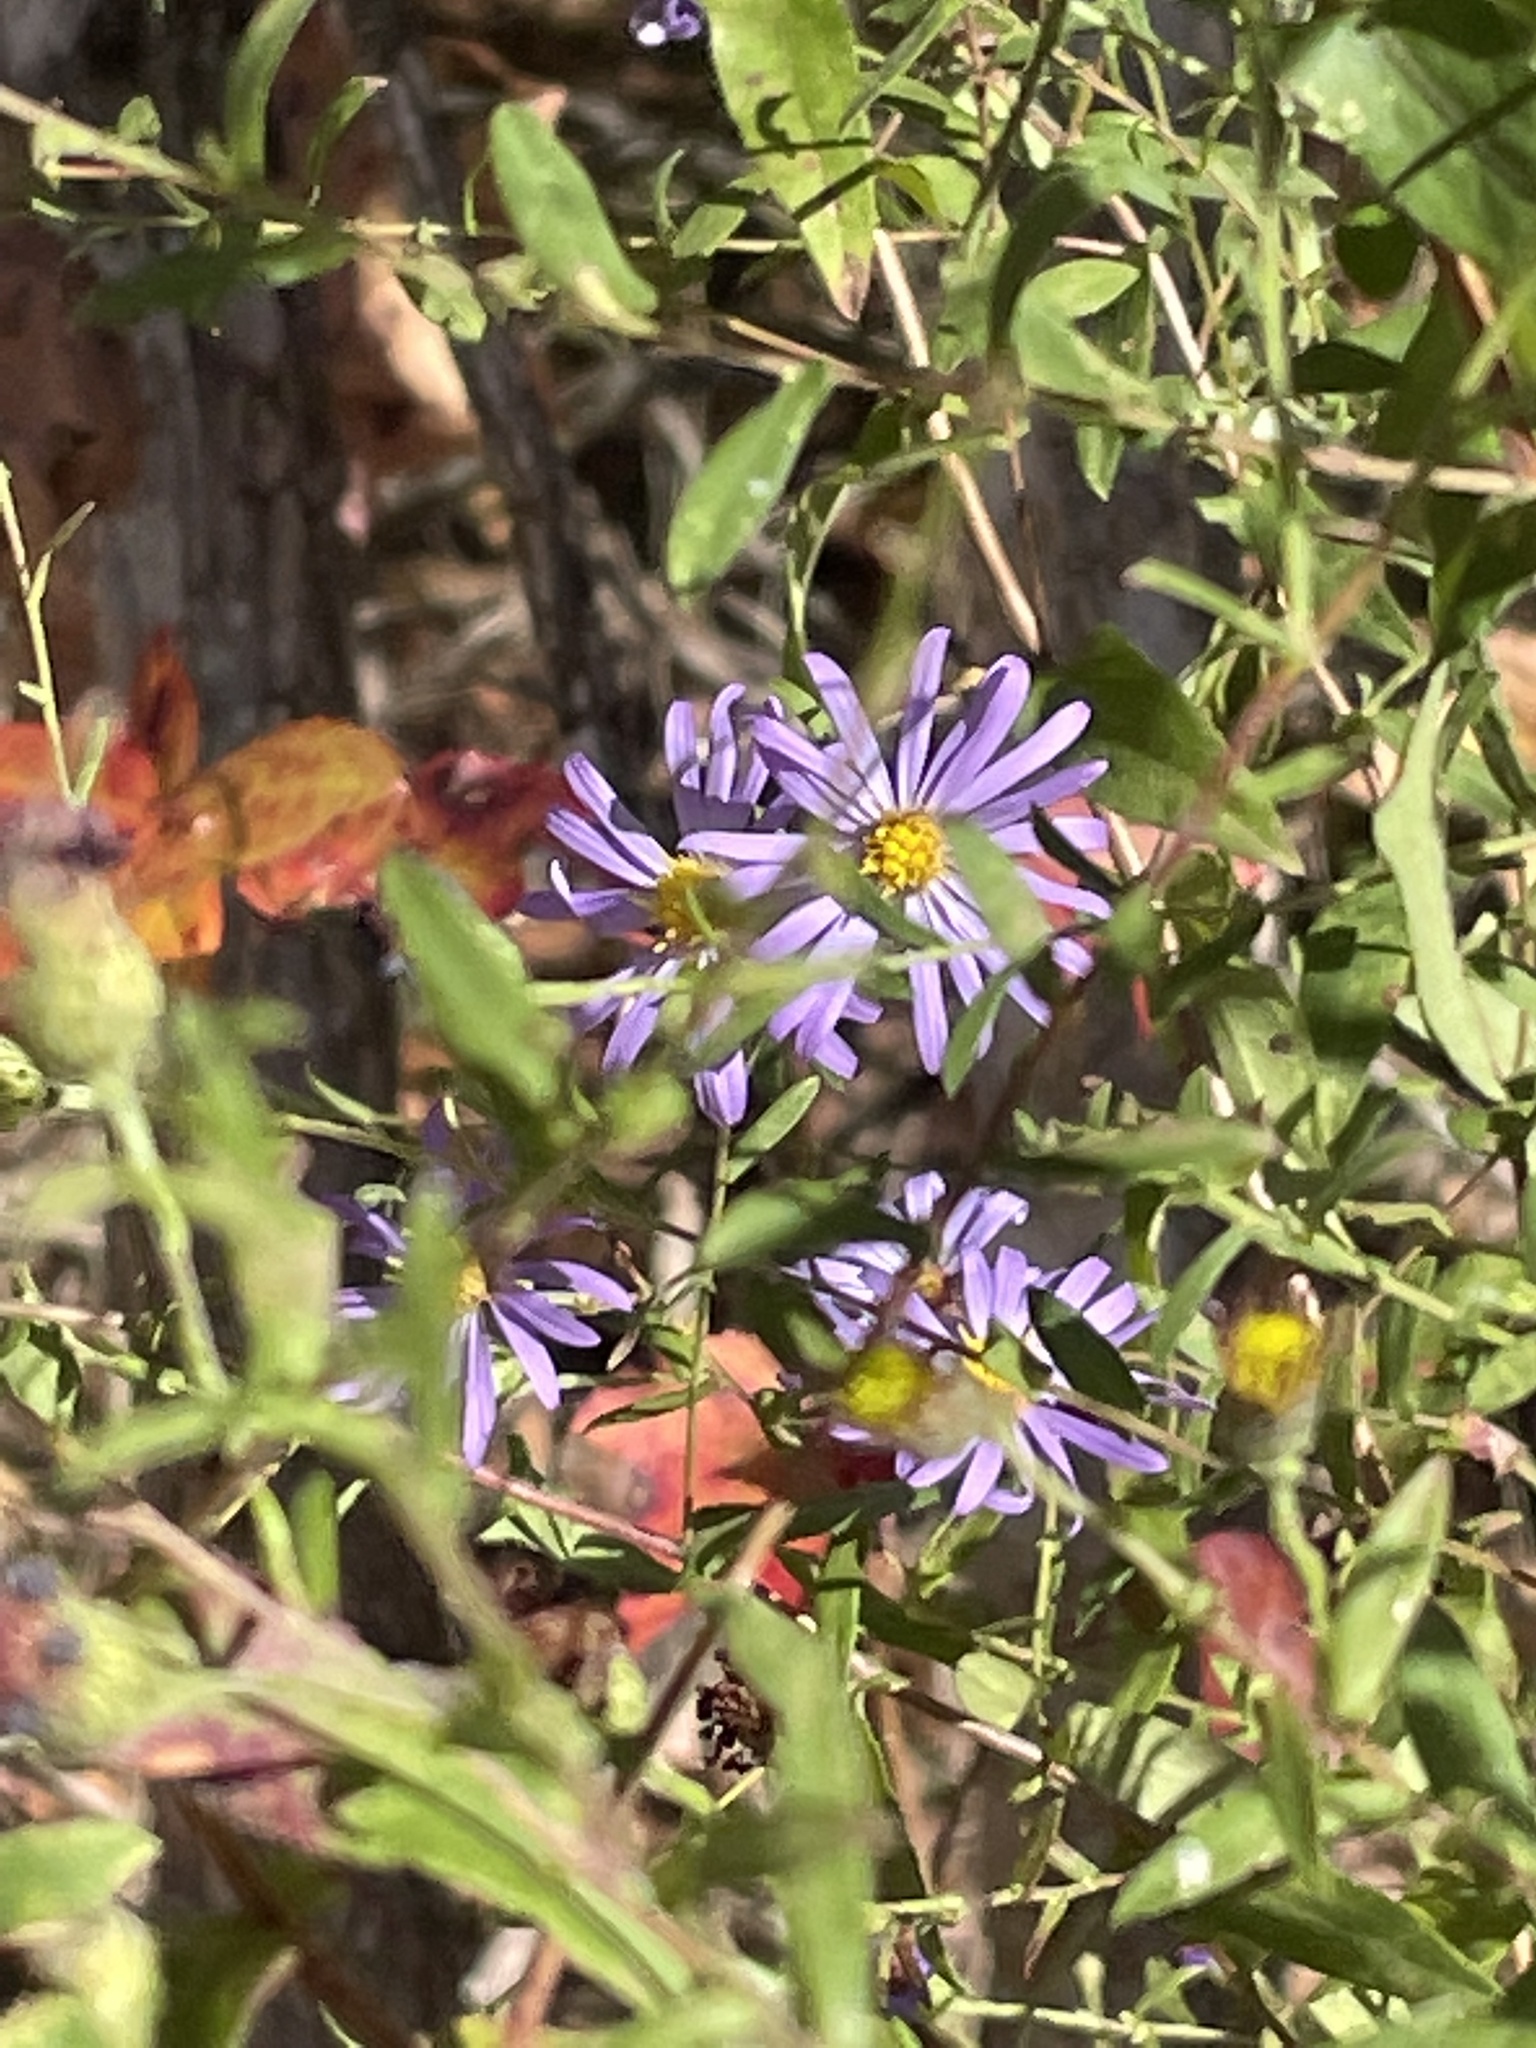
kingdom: Plantae
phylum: Tracheophyta
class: Magnoliopsida
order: Asterales
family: Asteraceae
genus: Symphyotrichum
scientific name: Symphyotrichum patens
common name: Late purple aster
